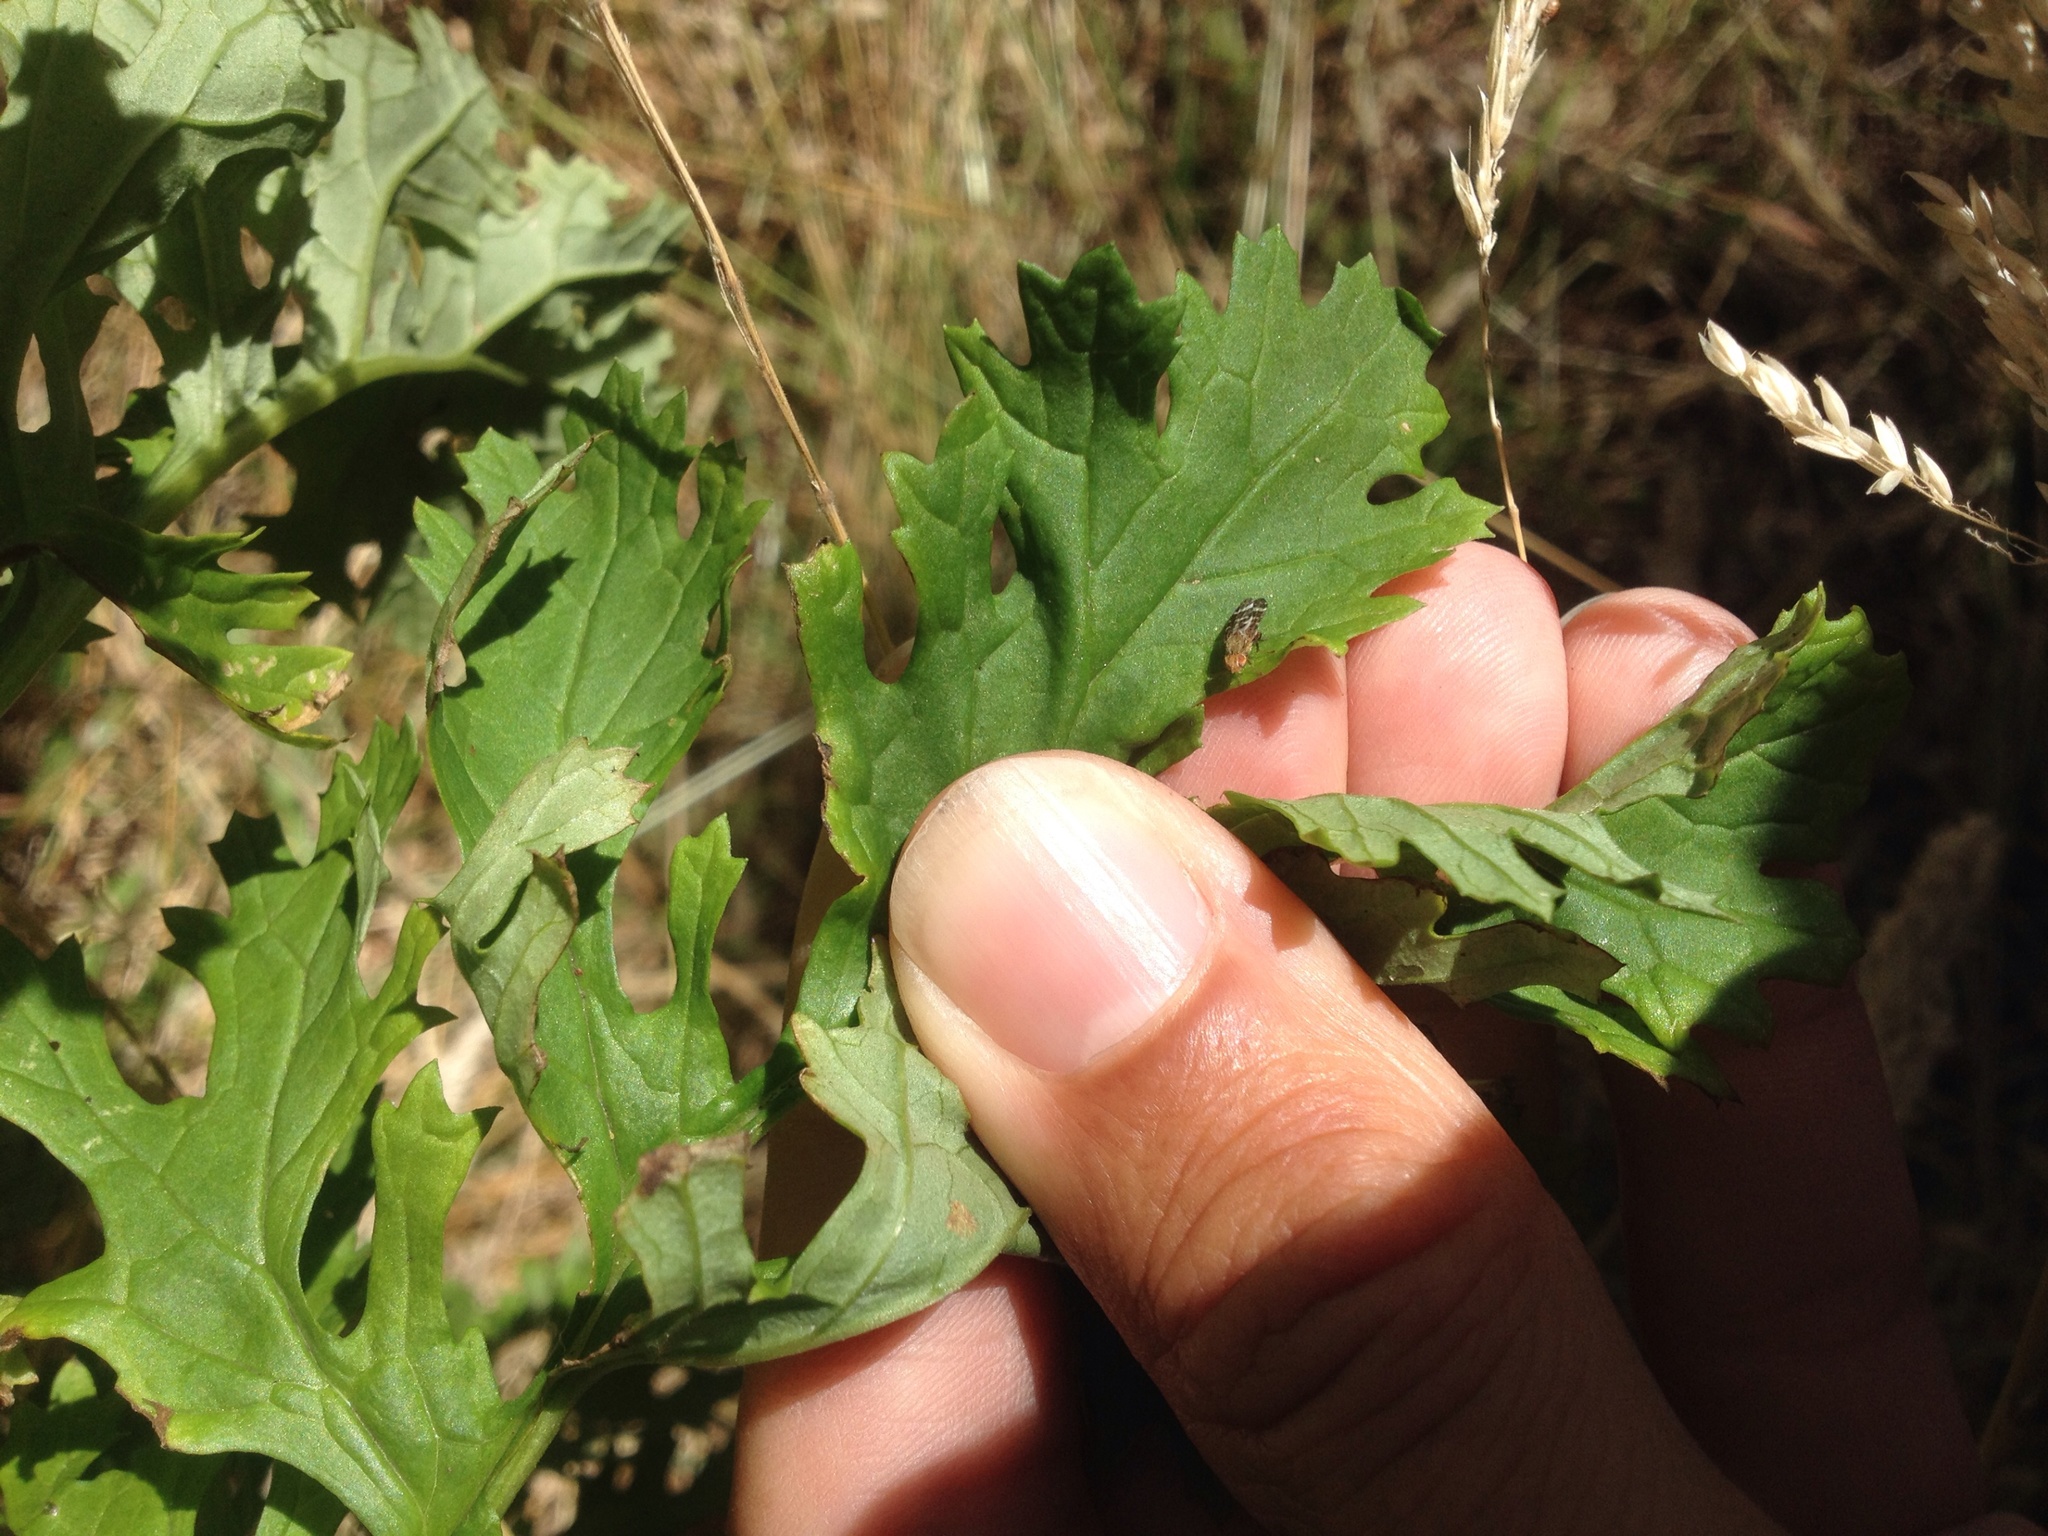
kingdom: Animalia
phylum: Arthropoda
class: Insecta
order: Diptera
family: Tephritidae
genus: Sphenella
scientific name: Sphenella
